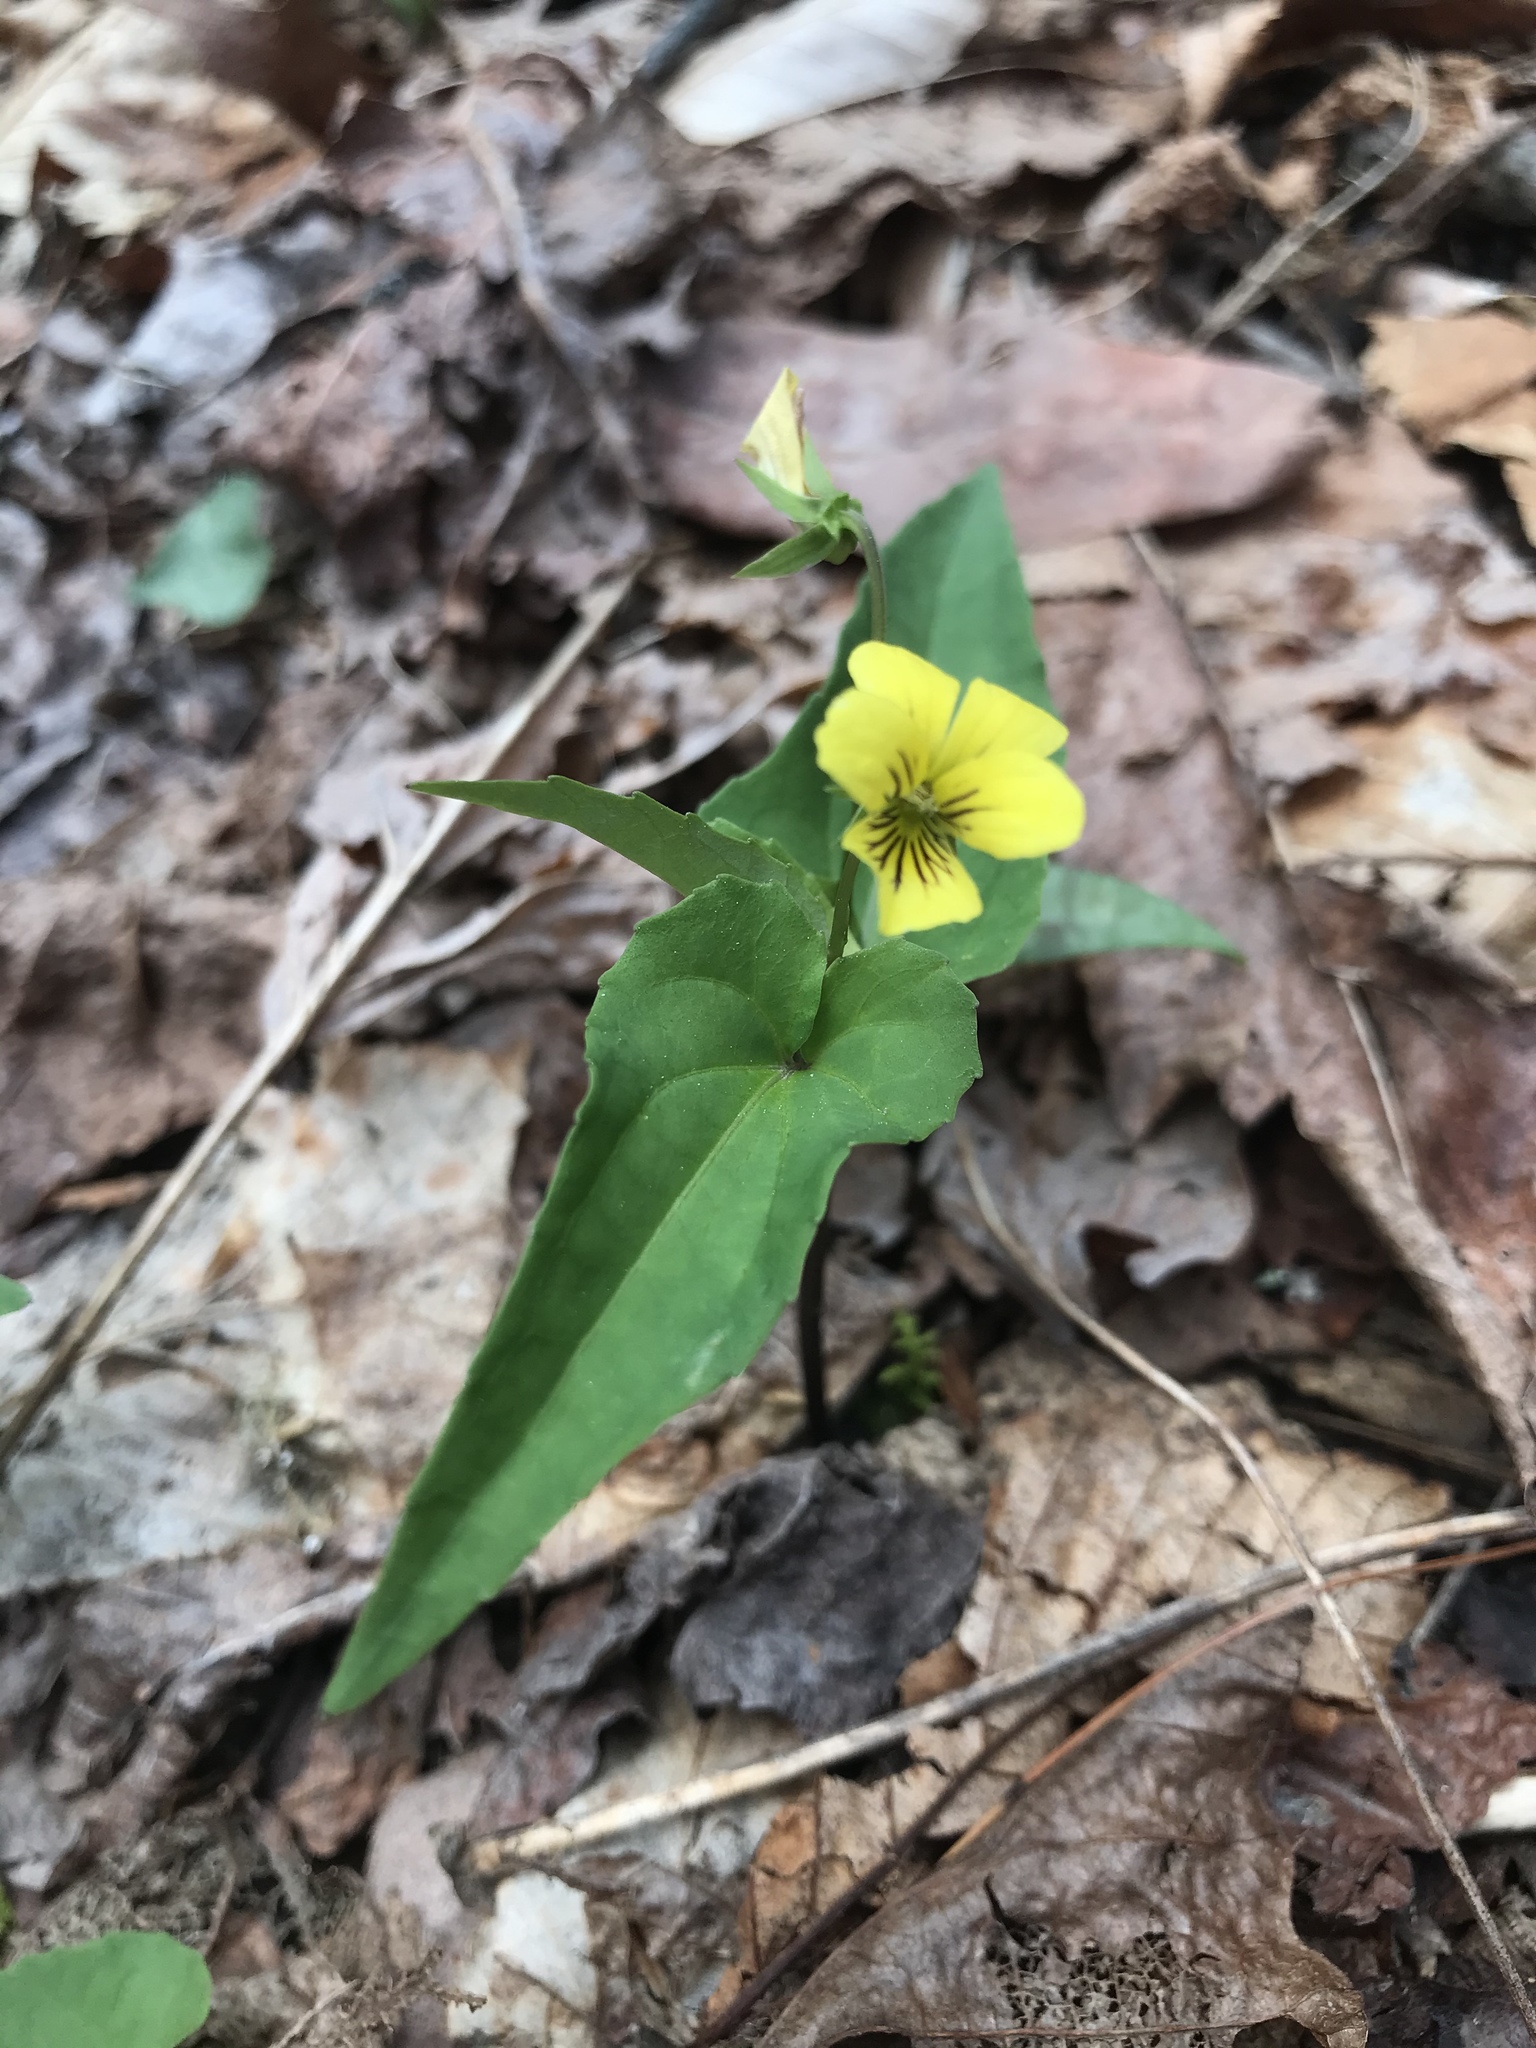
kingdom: Plantae
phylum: Tracheophyta
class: Magnoliopsida
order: Malpighiales
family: Violaceae
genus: Viola
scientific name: Viola hastata
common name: Spear-leaf violet
